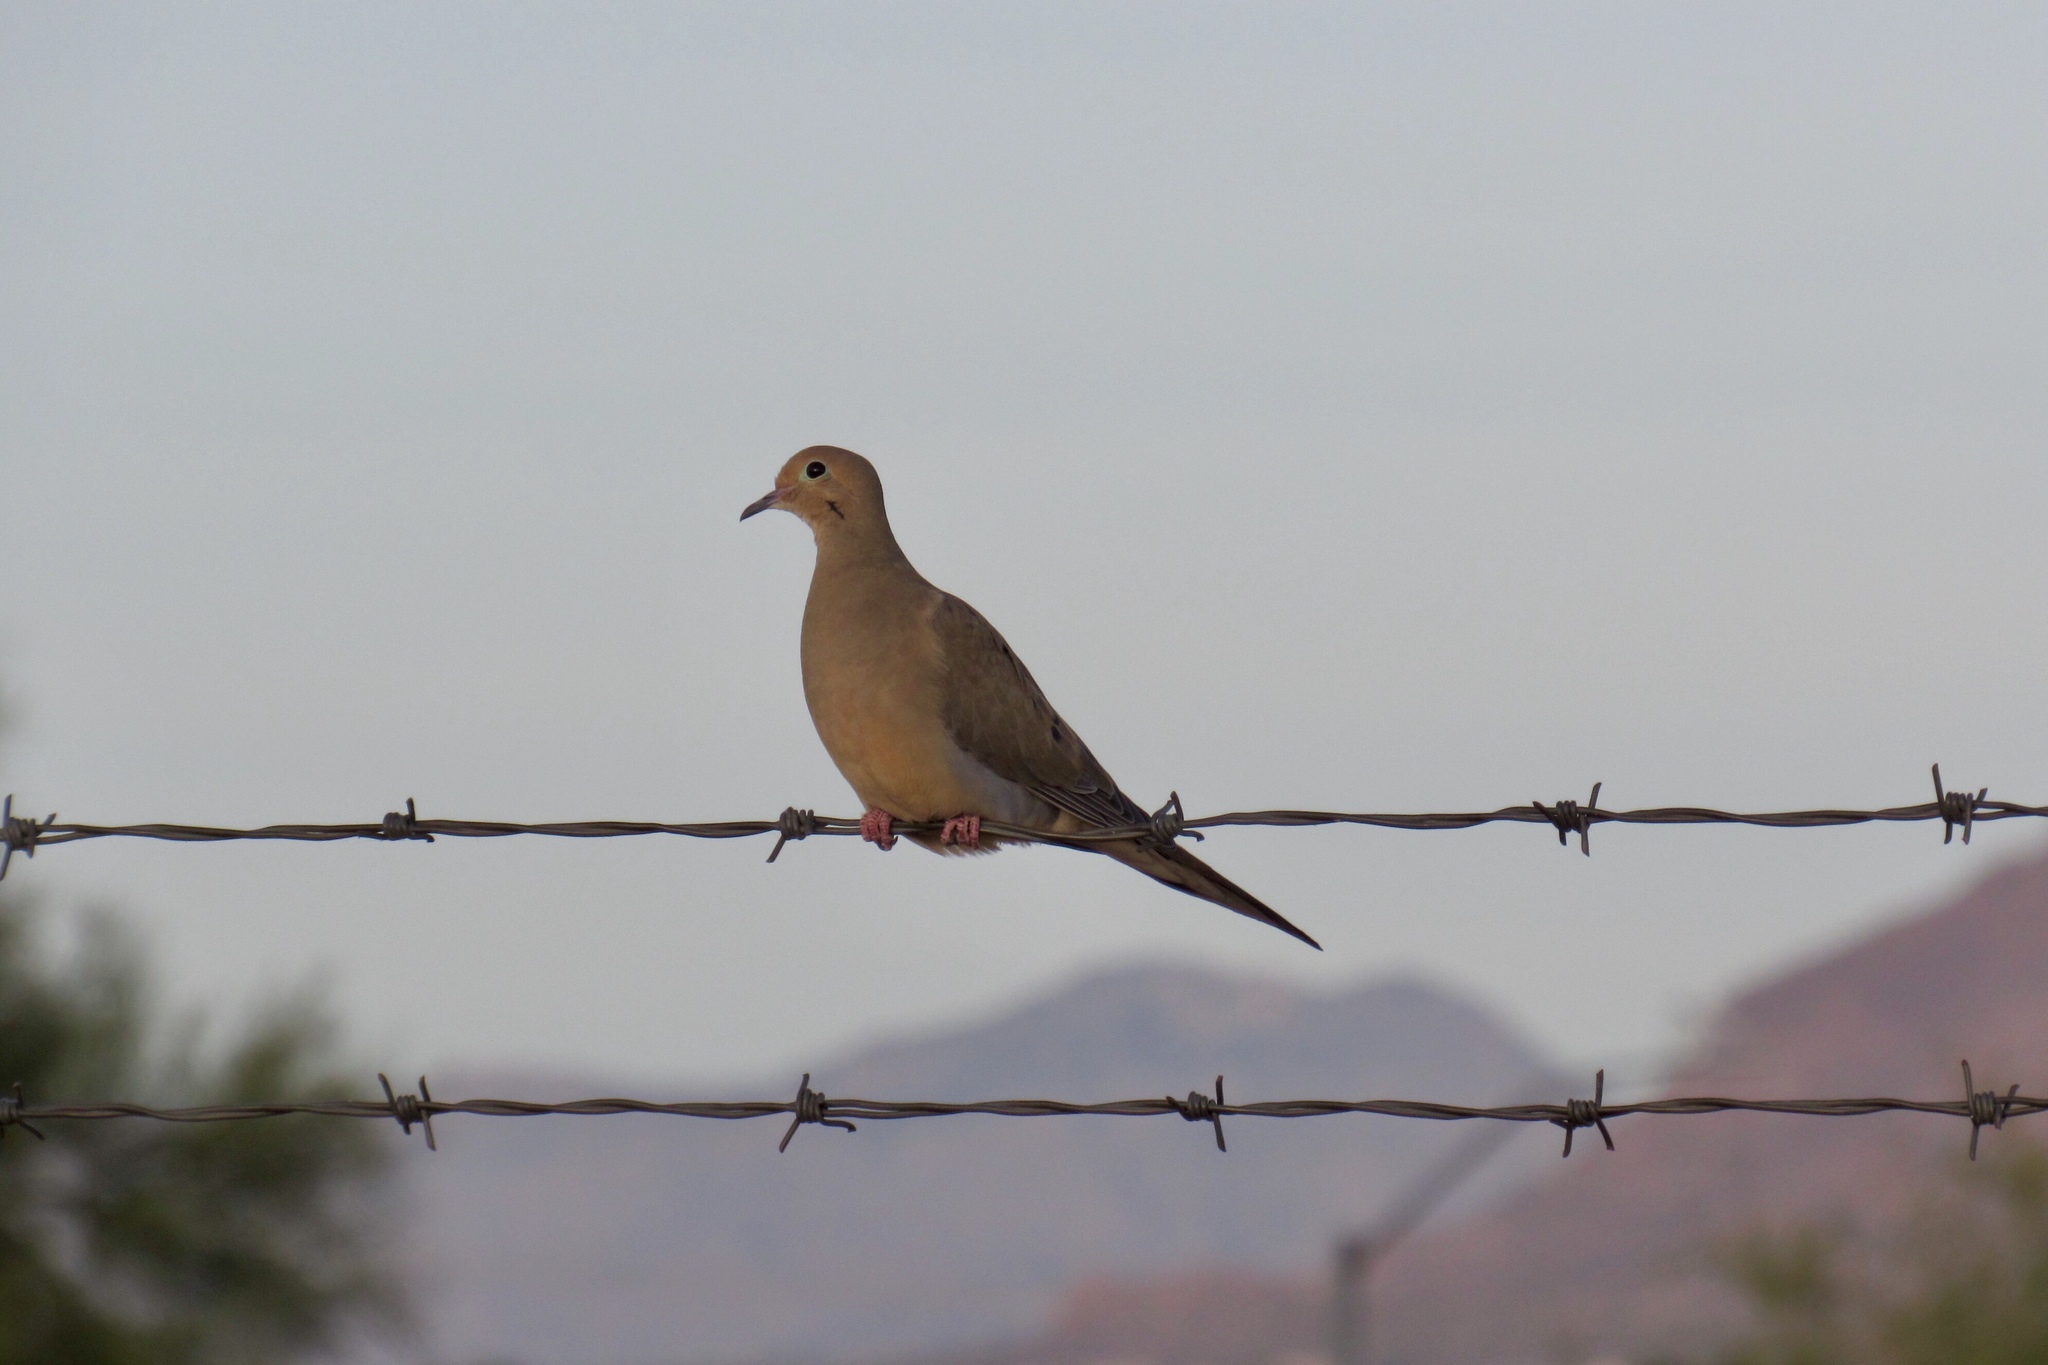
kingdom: Animalia
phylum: Chordata
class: Aves
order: Columbiformes
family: Columbidae
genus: Zenaida
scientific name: Zenaida macroura
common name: Mourning dove
